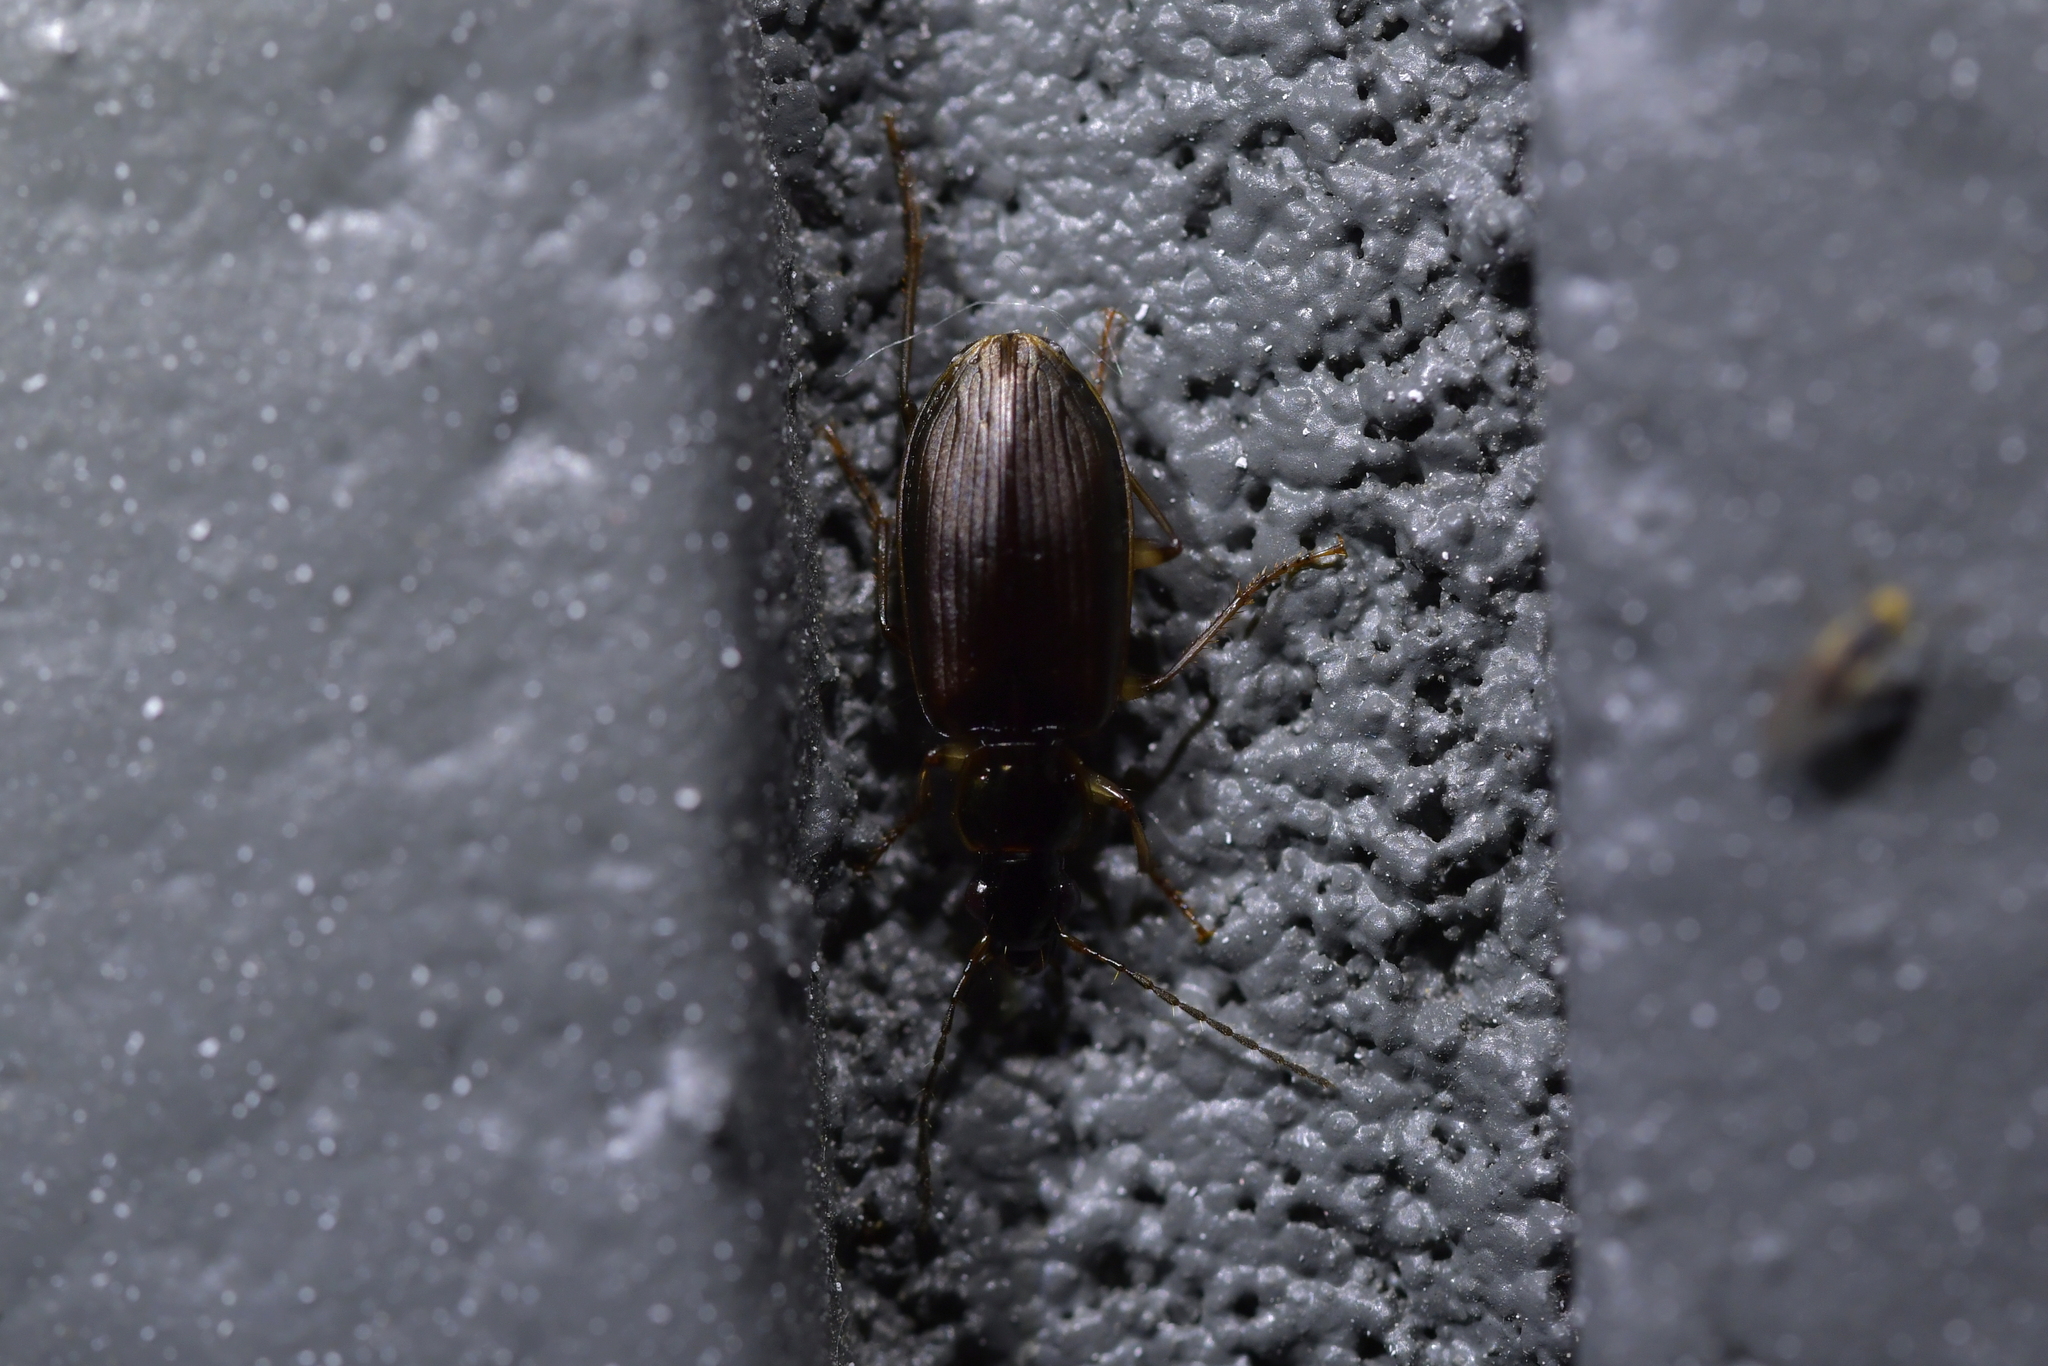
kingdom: Animalia
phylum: Arthropoda
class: Insecta
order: Coleoptera
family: Carabidae
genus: Notagonum
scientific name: Notagonum submetallicum
